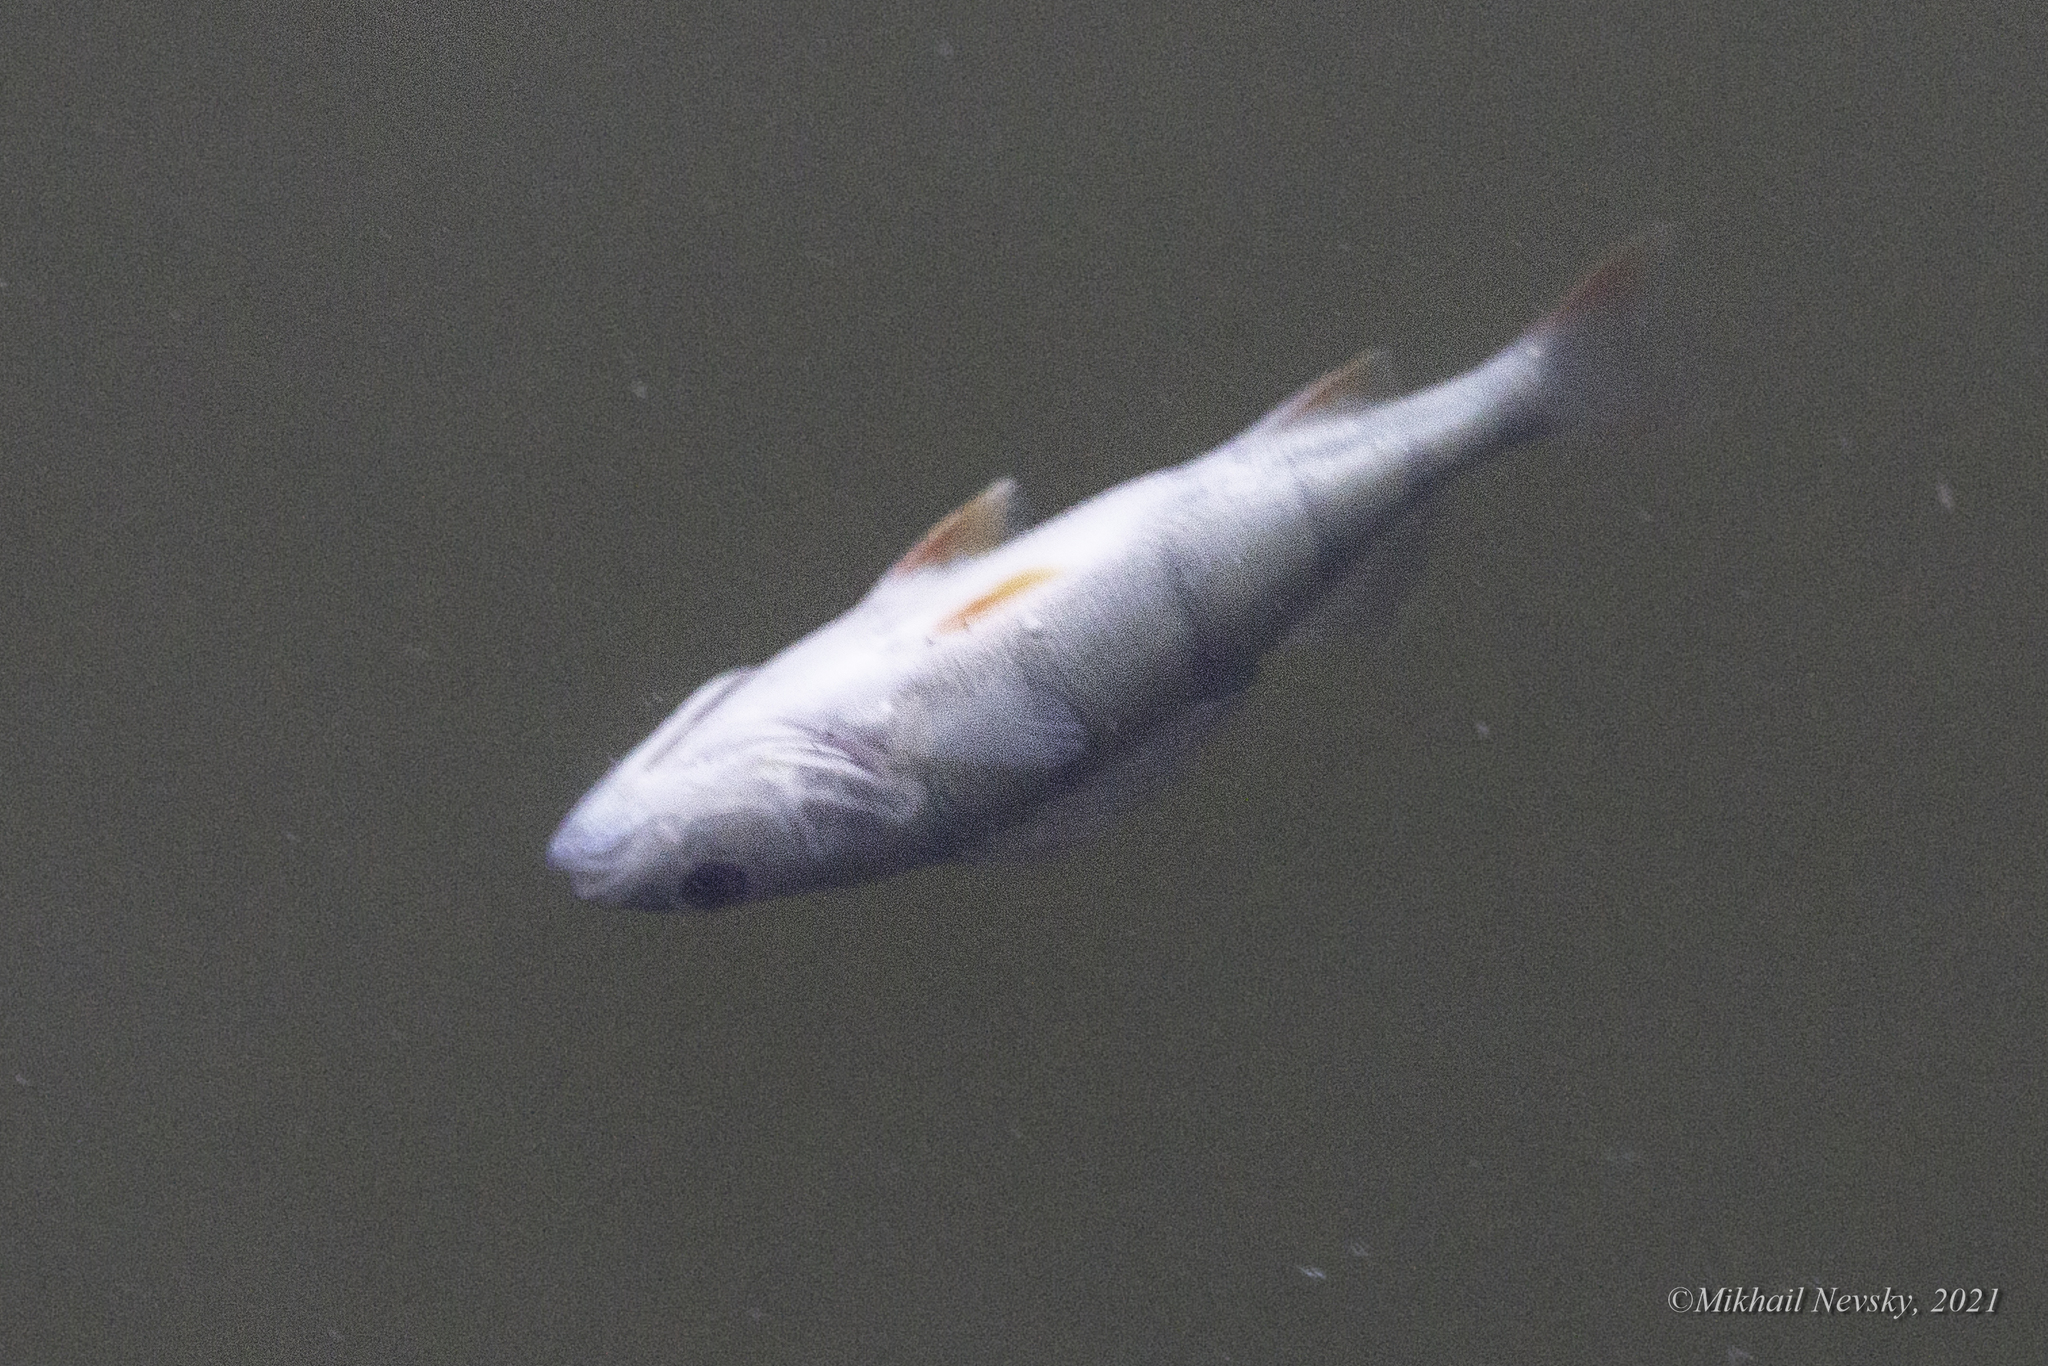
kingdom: Animalia
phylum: Chordata
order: Perciformes
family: Percidae
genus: Perca
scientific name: Perca fluviatilis
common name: Perch
